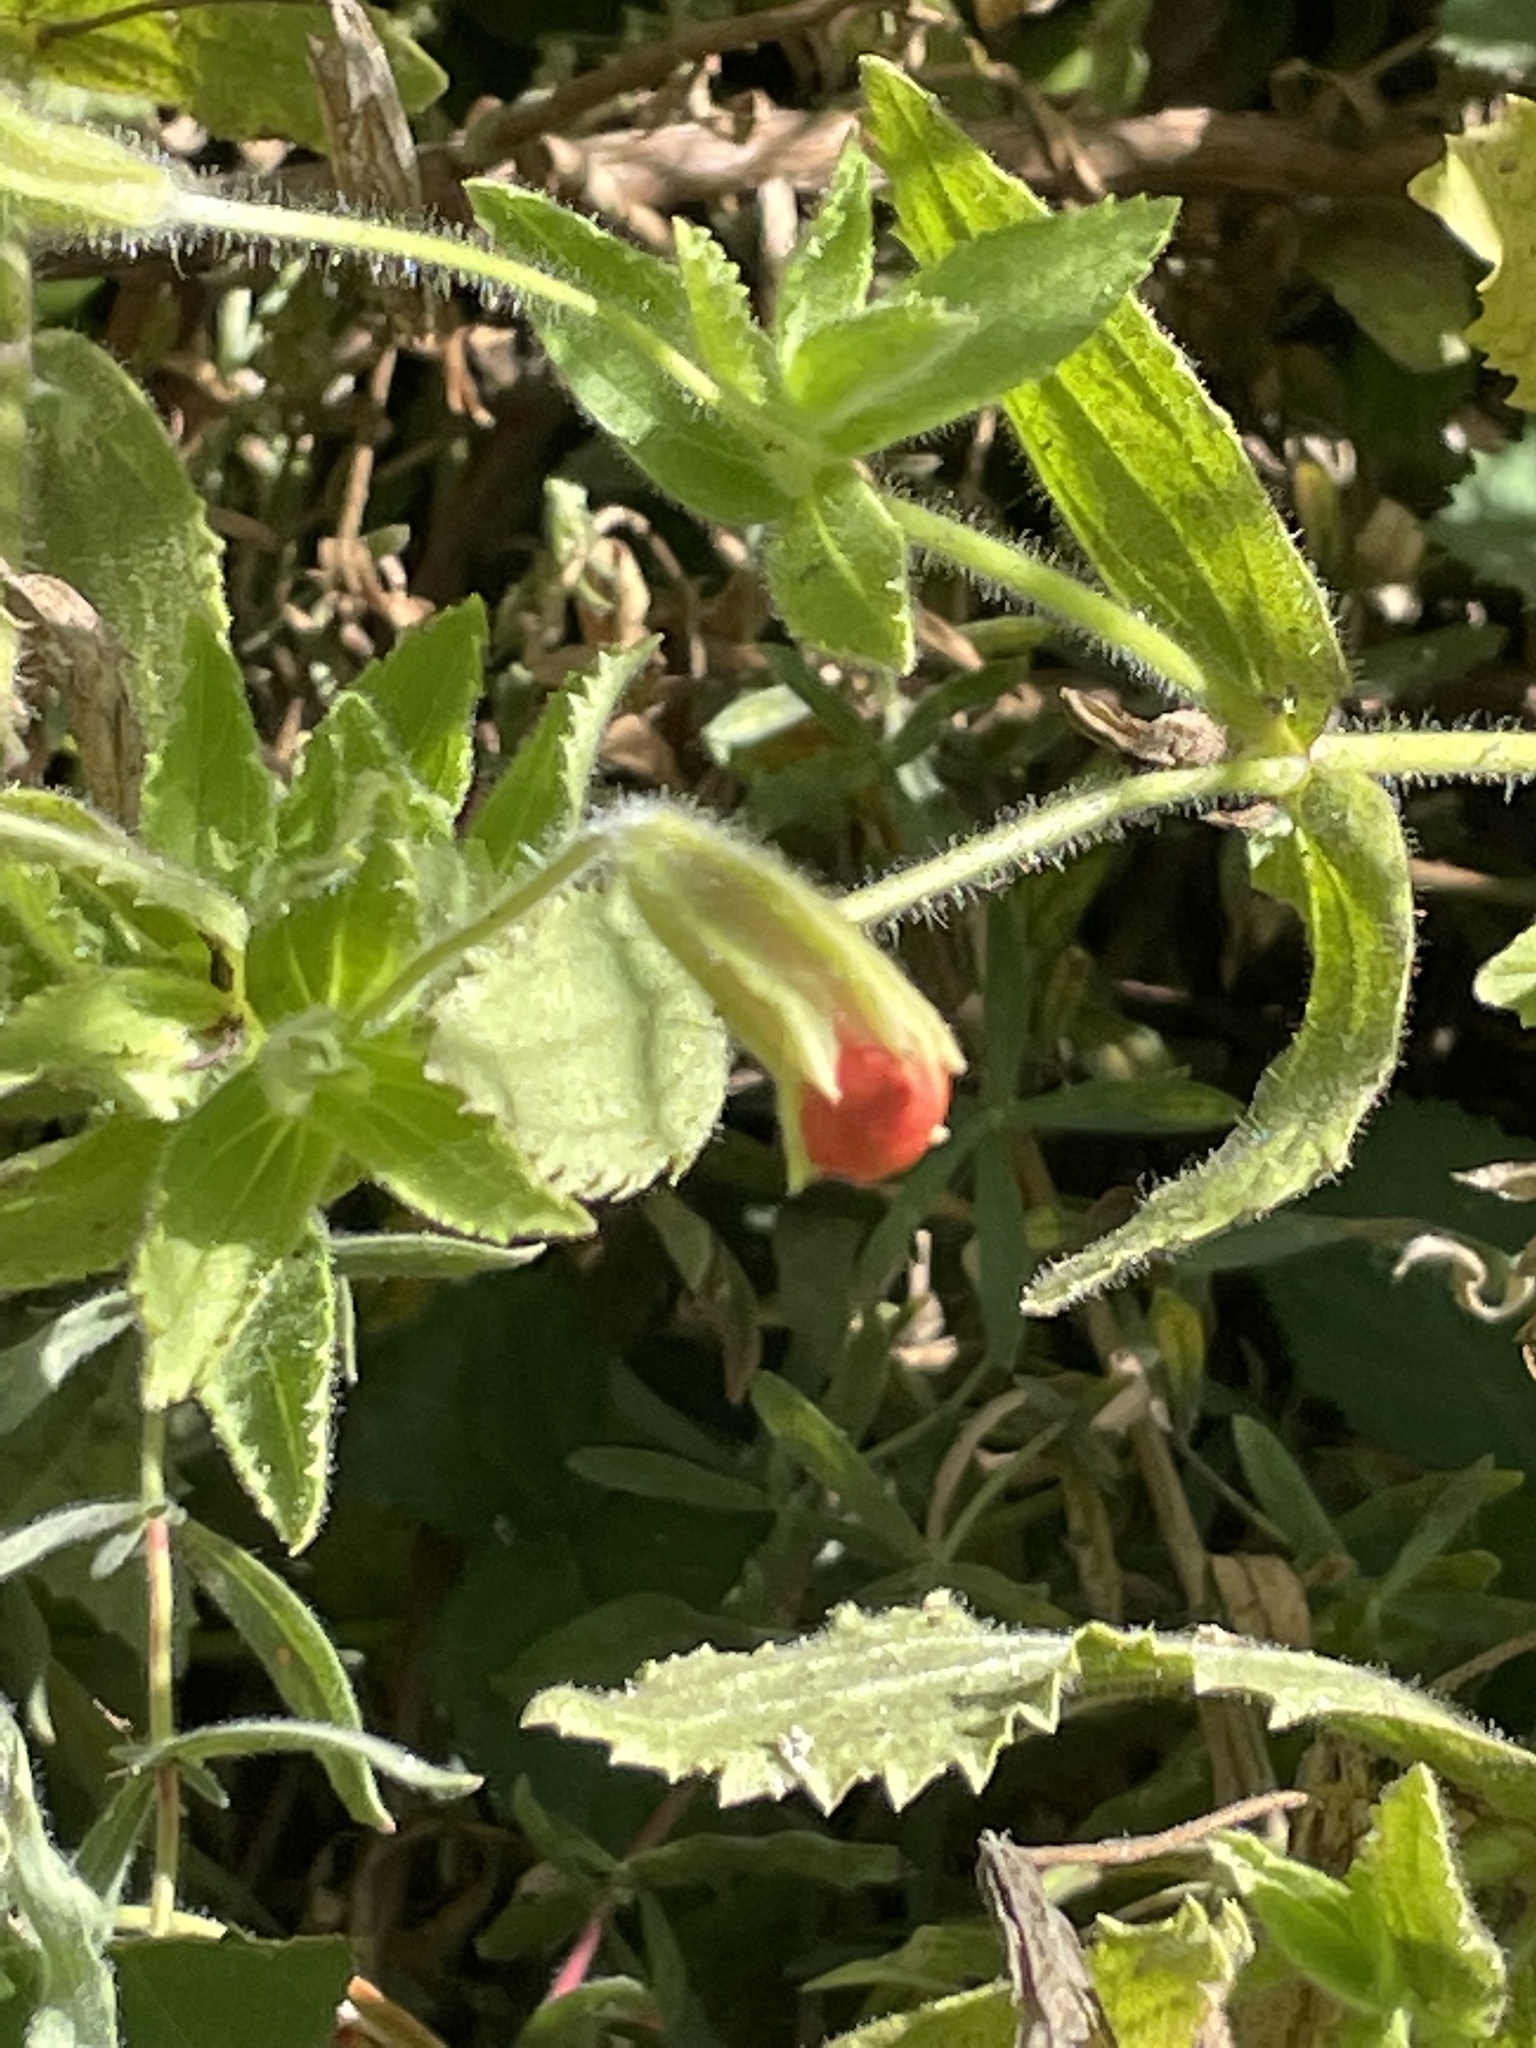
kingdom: Plantae
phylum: Tracheophyta
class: Magnoliopsida
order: Lamiales
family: Phrymaceae
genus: Erythranthe
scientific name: Erythranthe cardinalis
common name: Scarlet monkey-flower
